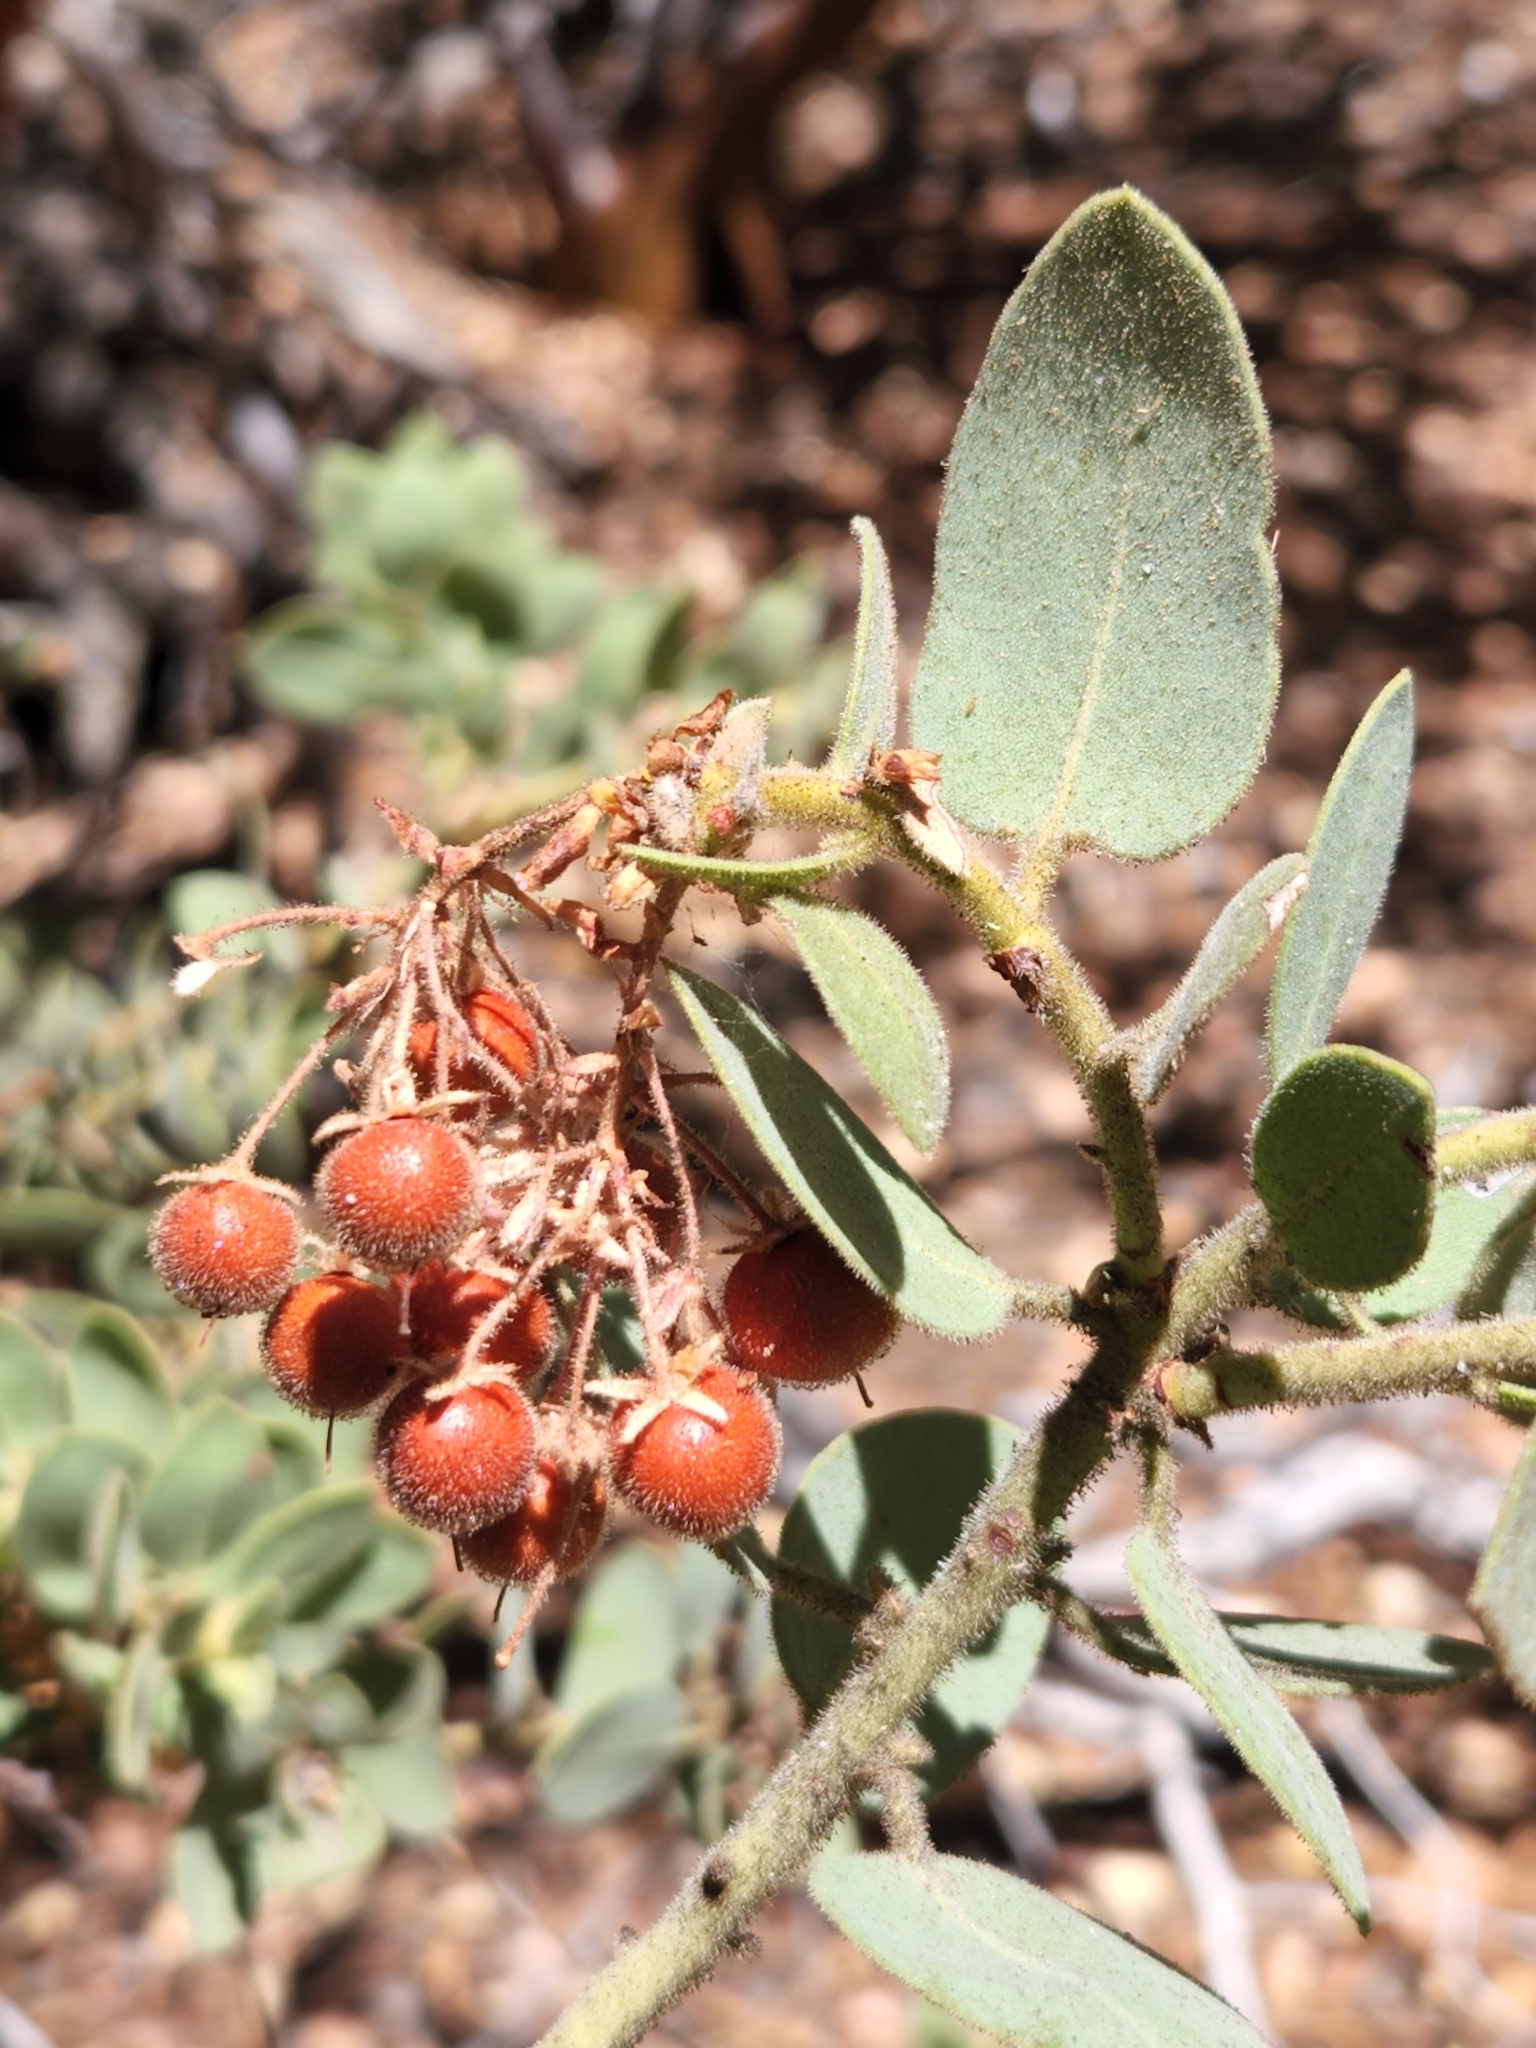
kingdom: Plantae
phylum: Tracheophyta
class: Magnoliopsida
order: Ericales
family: Ericaceae
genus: Arctostaphylos
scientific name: Arctostaphylos pringlei
